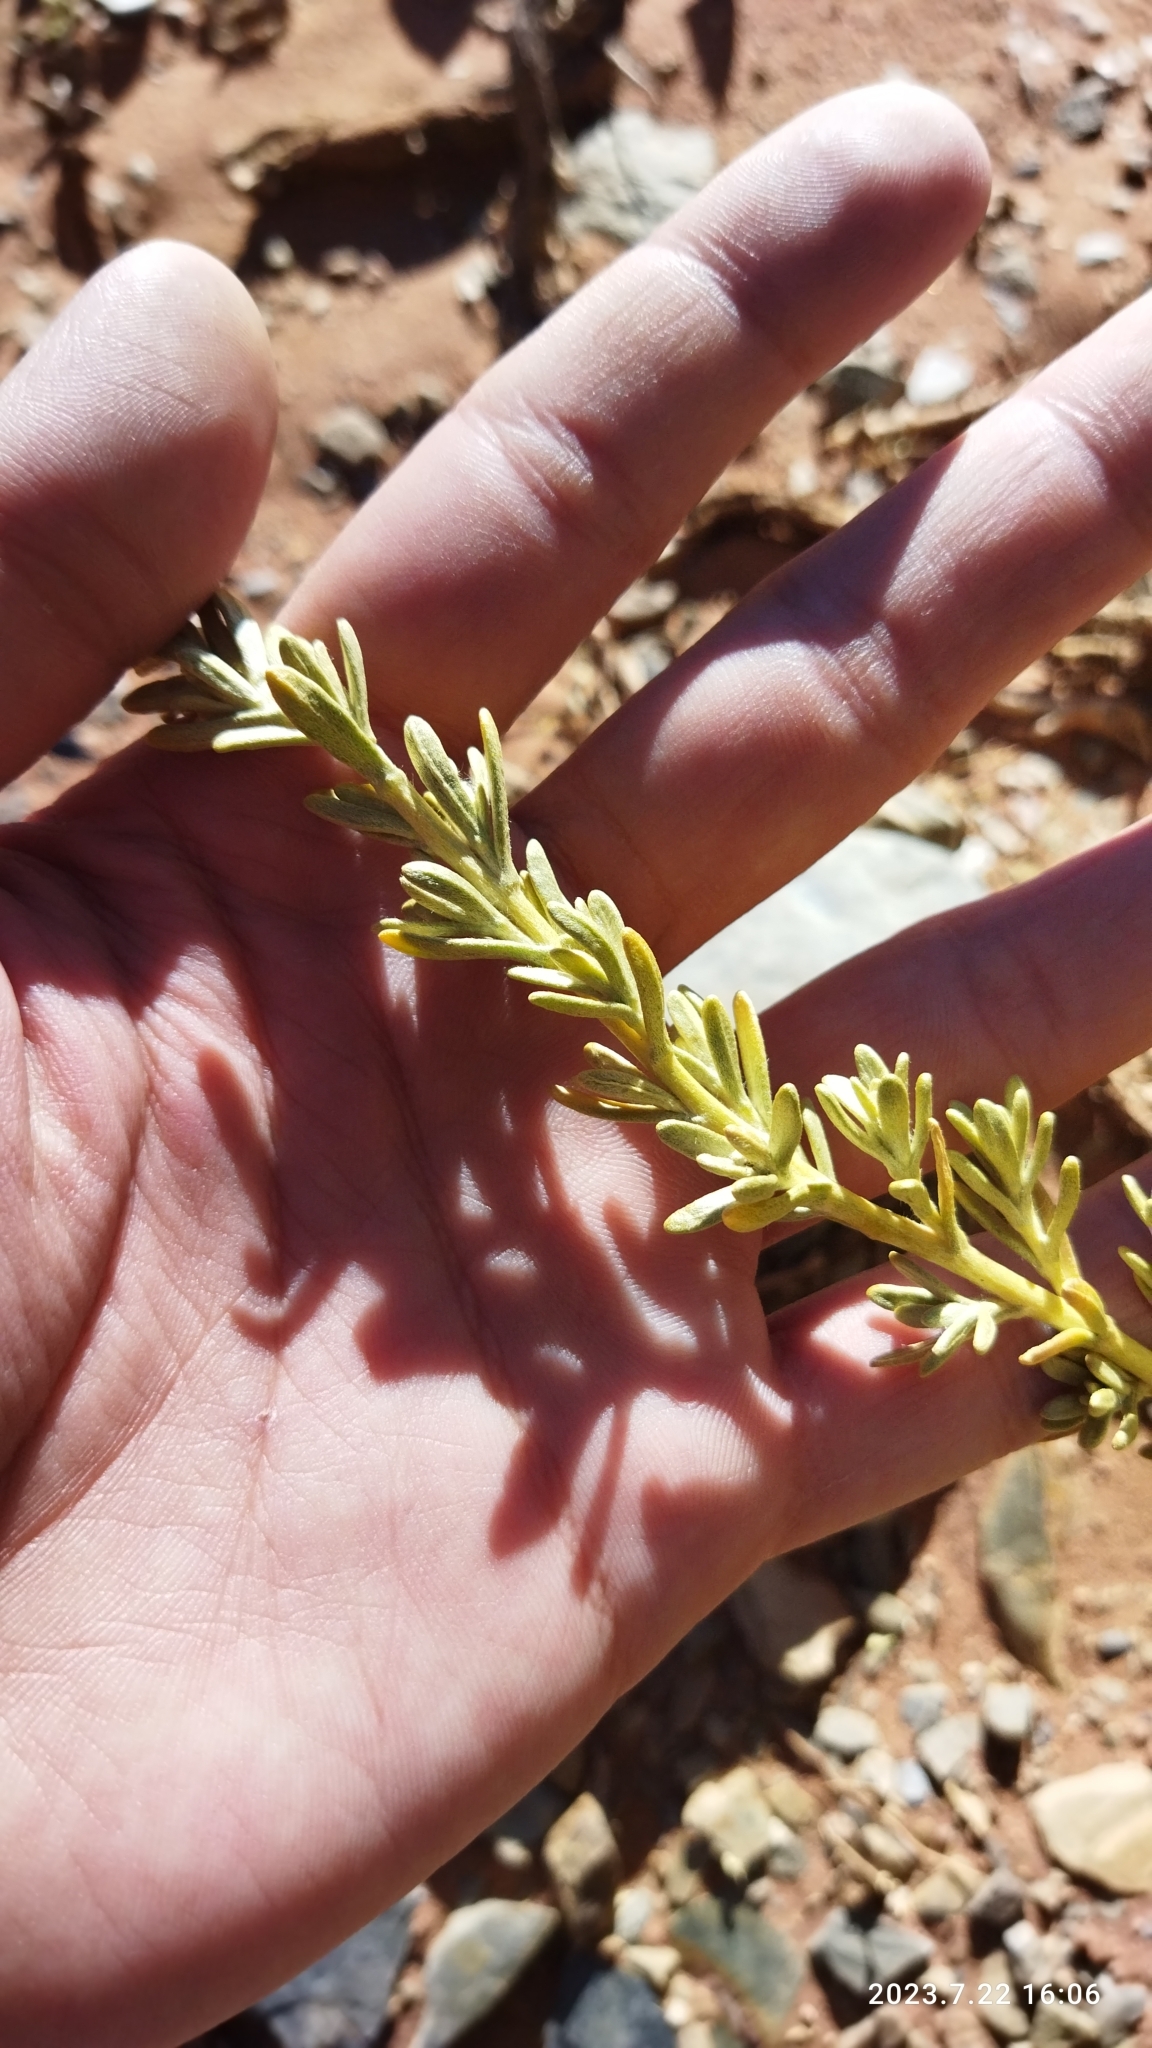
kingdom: Plantae
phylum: Tracheophyta
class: Magnoliopsida
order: Asterales
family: Asteraceae
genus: Parastrephia
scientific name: Parastrephia lucida
